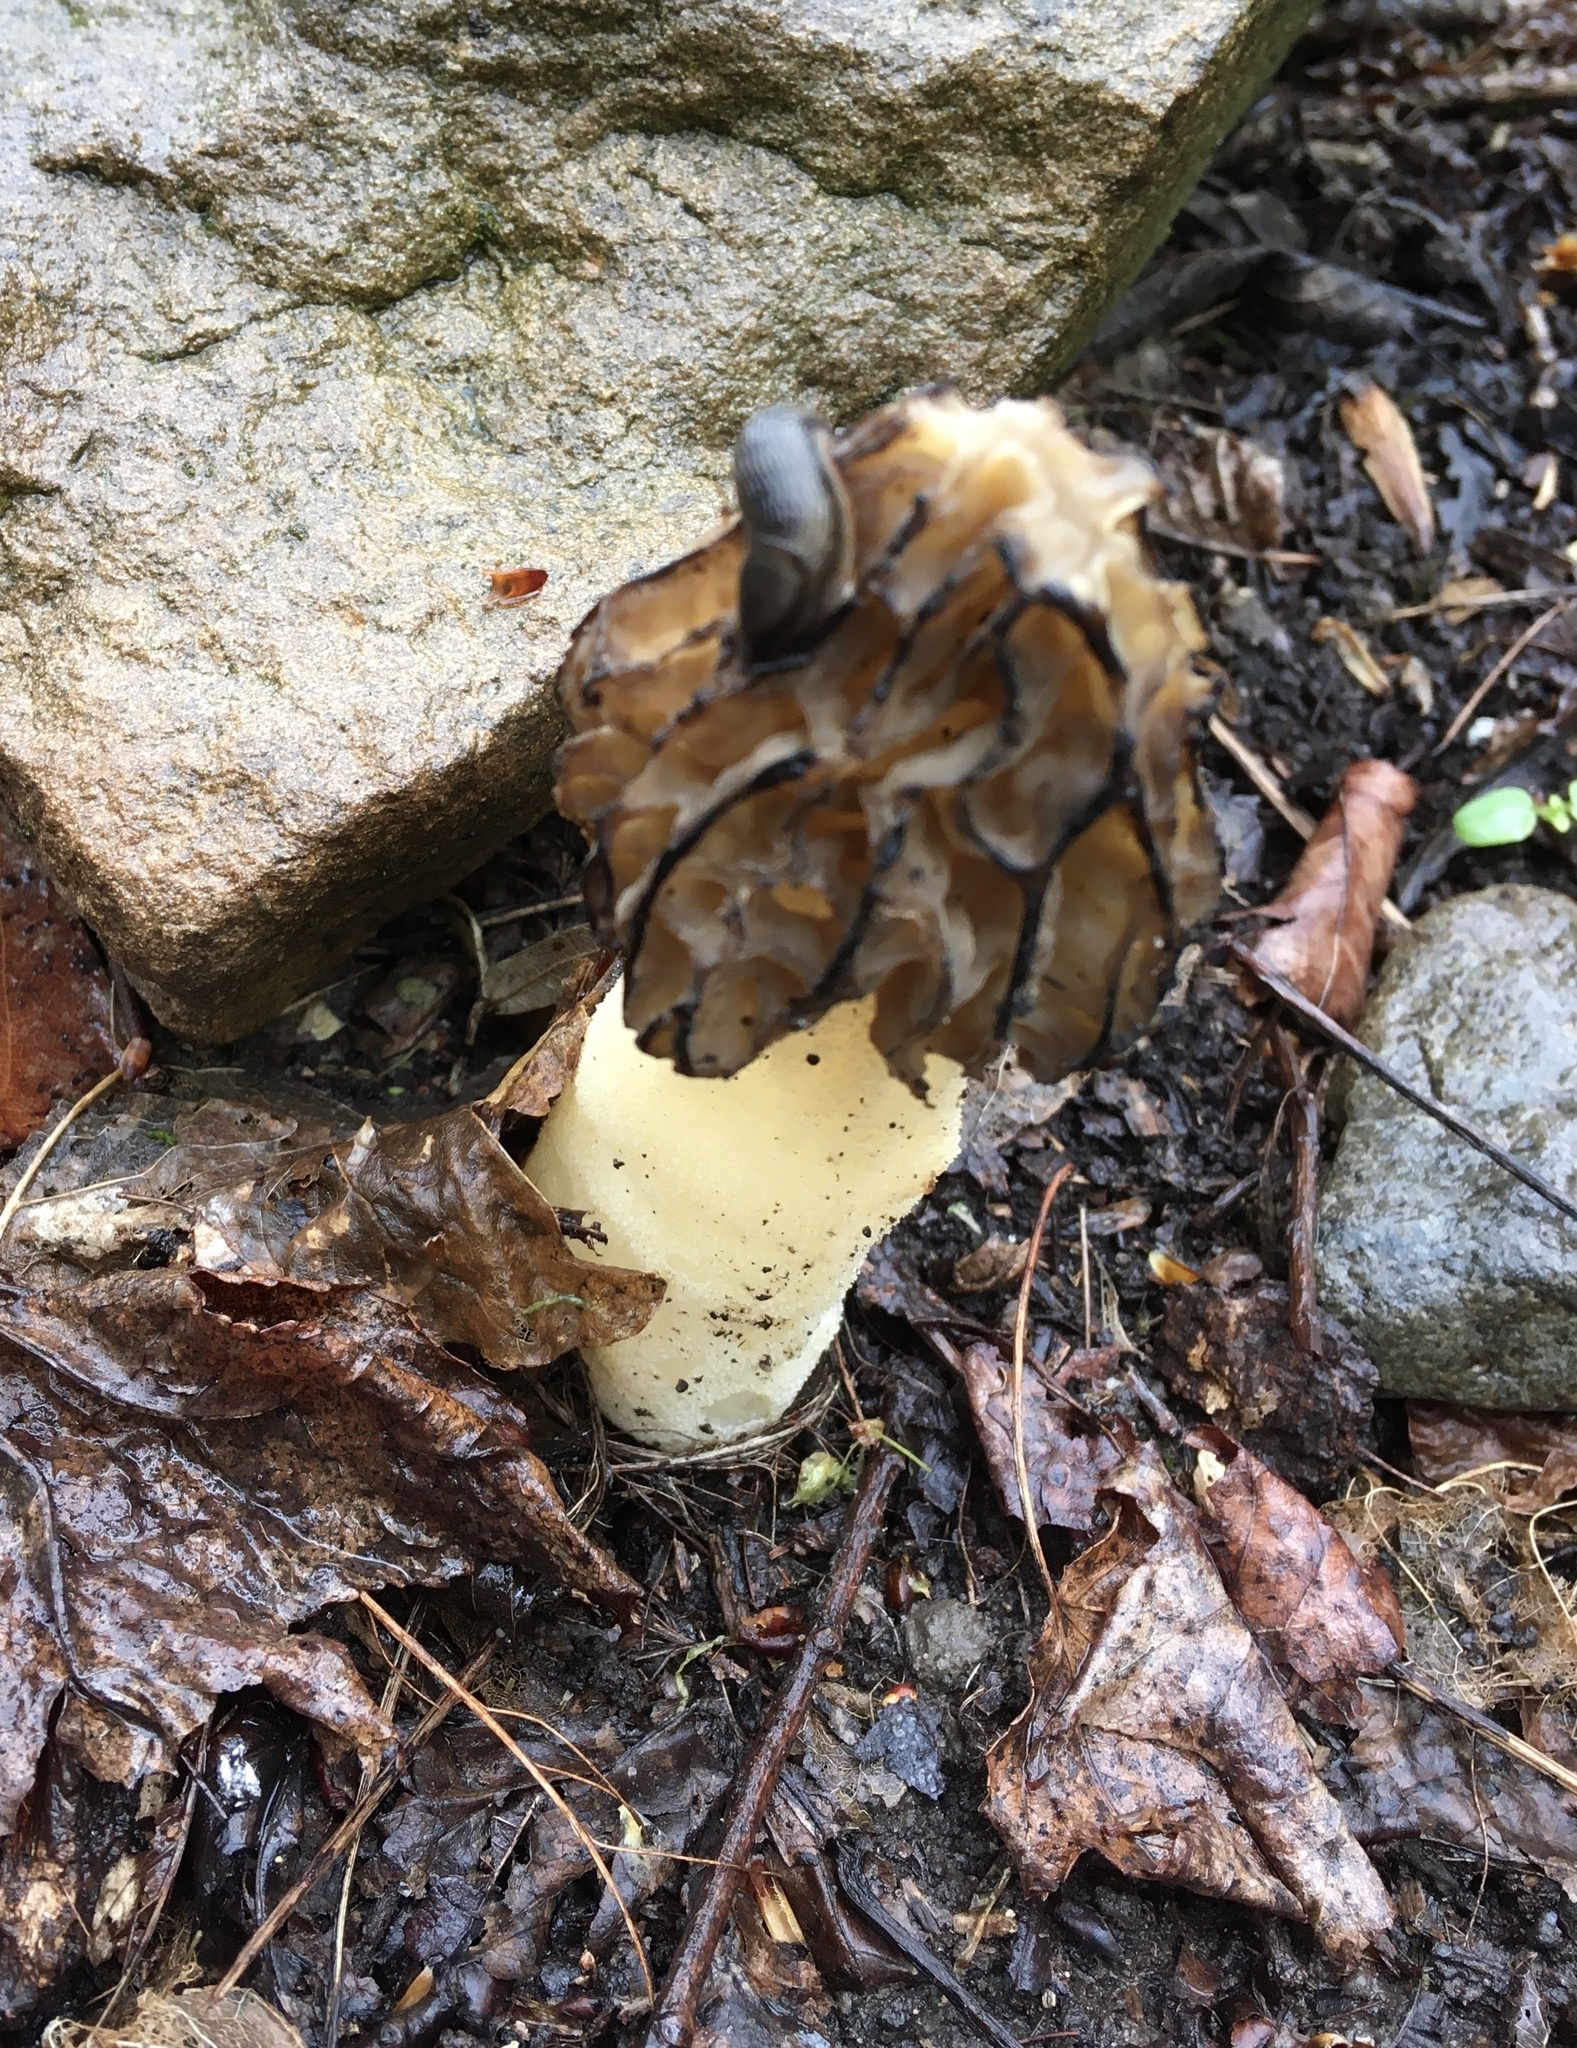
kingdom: Fungi
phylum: Ascomycota
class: Pezizomycetes
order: Pezizales
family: Morchellaceae
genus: Morchella
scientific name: Morchella punctipes
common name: Half-free morel
